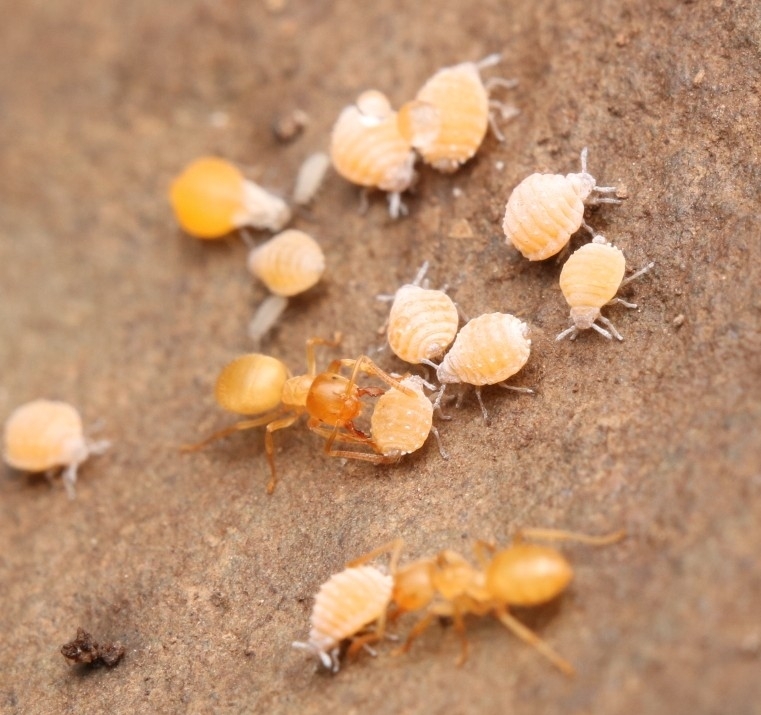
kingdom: Animalia
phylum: Arthropoda
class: Insecta
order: Hymenoptera
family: Formicidae
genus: Cautolasius
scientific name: Cautolasius
